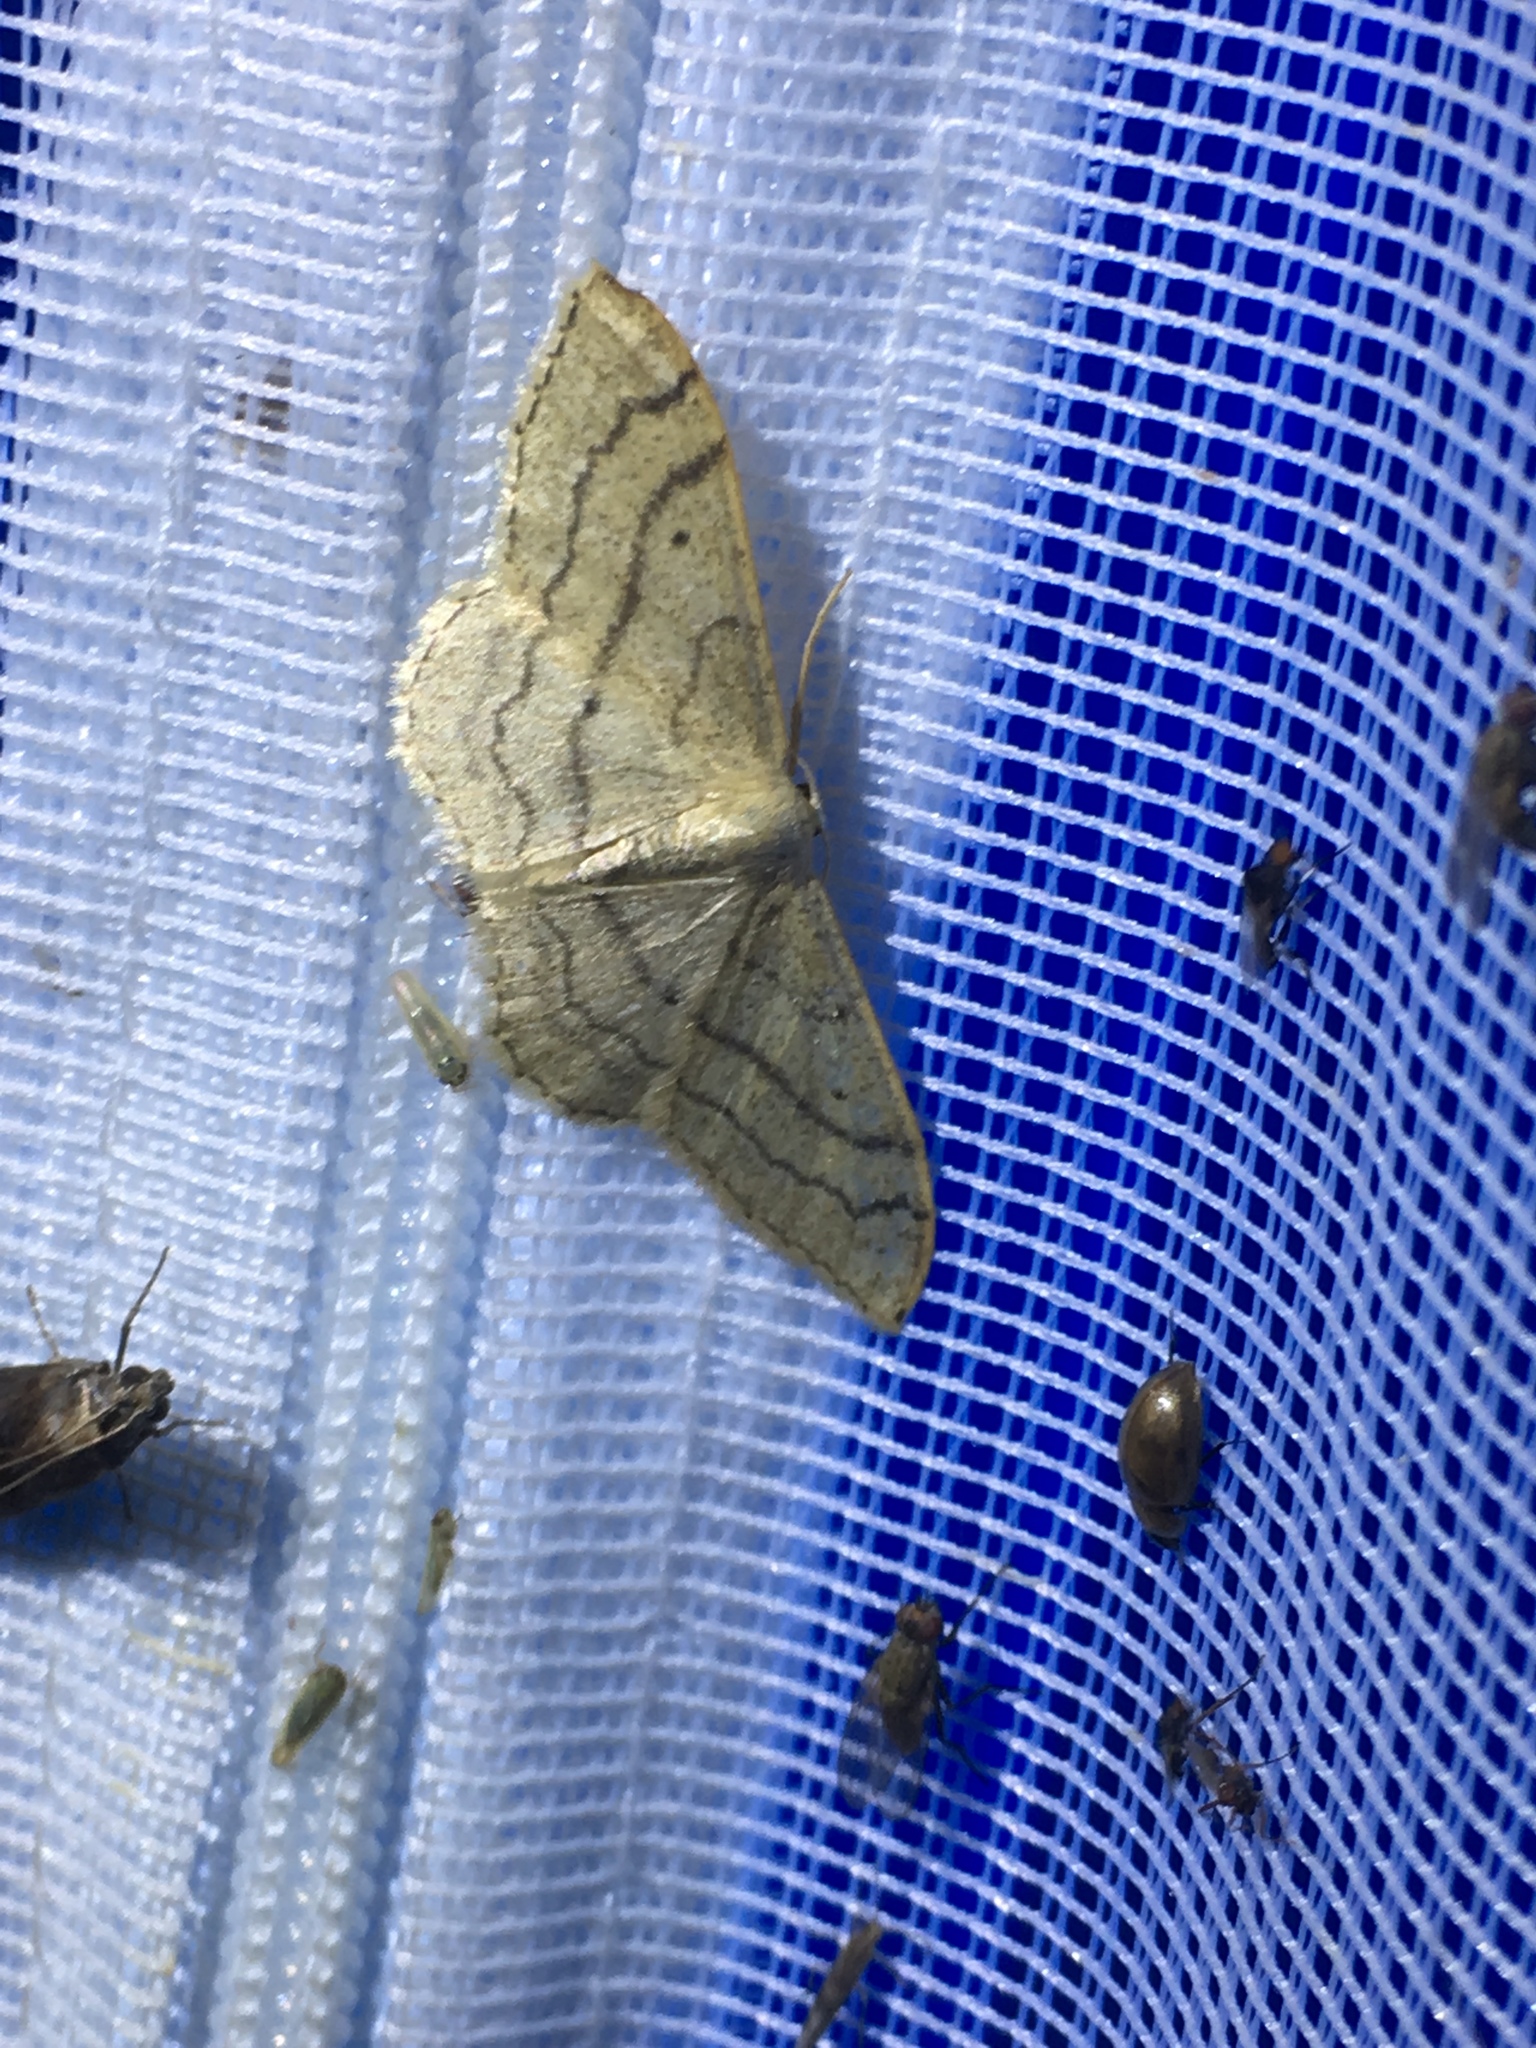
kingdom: Animalia
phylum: Arthropoda
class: Insecta
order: Lepidoptera
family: Geometridae
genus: Idaea
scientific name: Idaea aversata
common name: Riband wave
